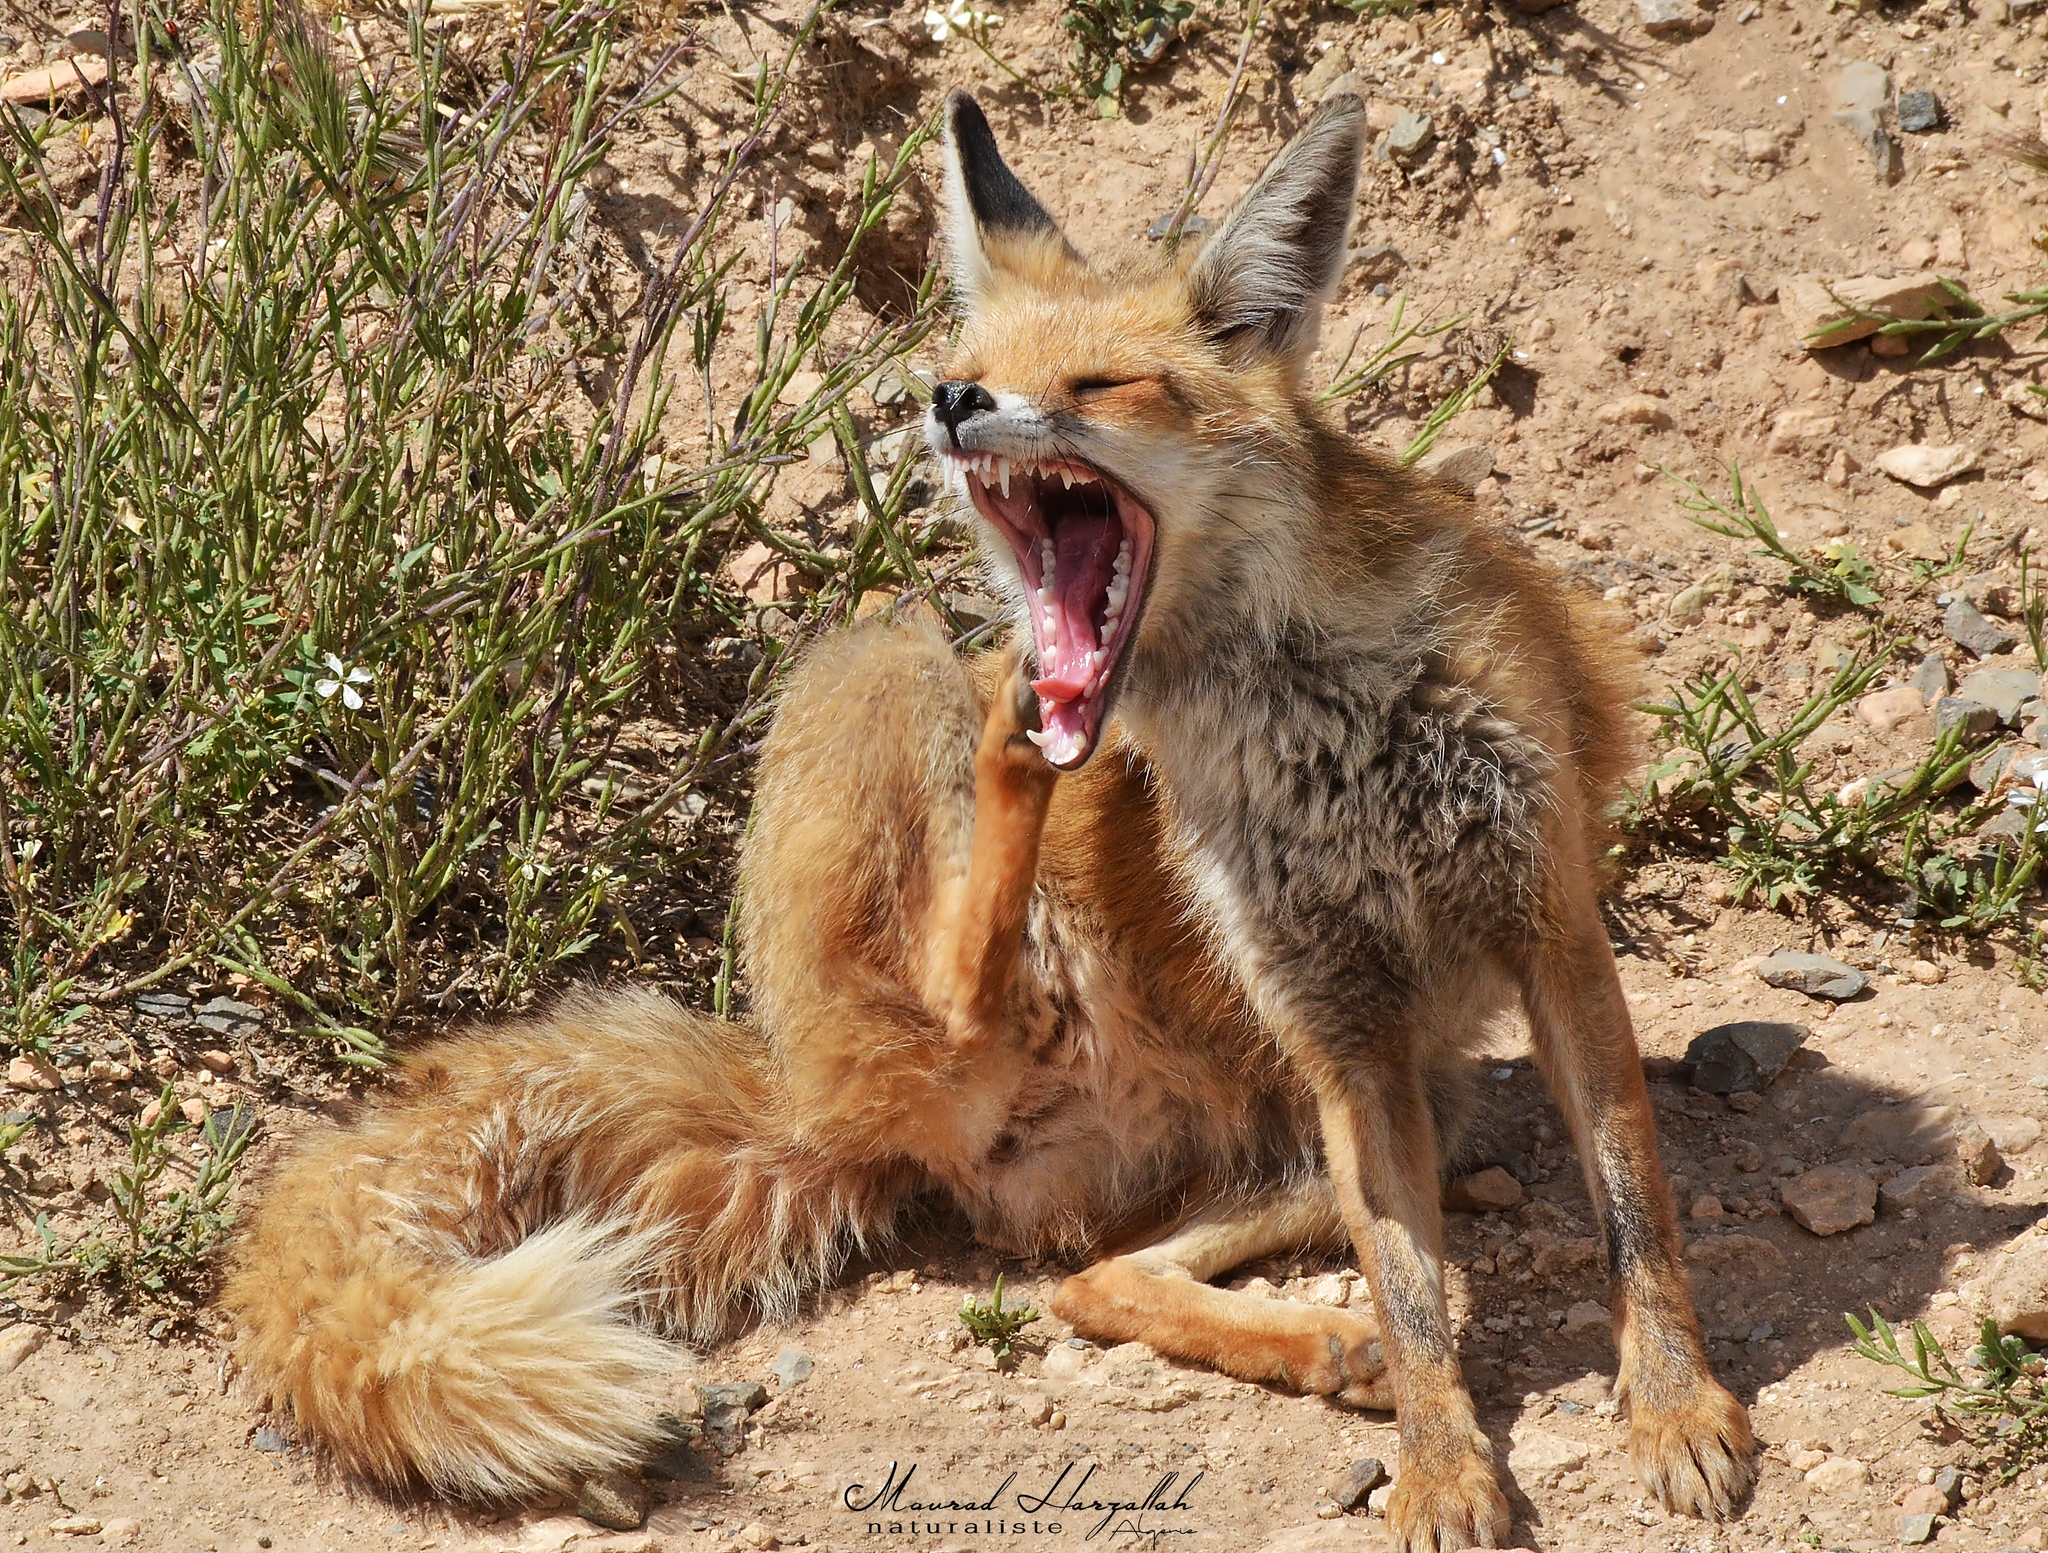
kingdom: Animalia
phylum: Chordata
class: Mammalia
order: Carnivora
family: Canidae
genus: Vulpes
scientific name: Vulpes vulpes
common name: Red fox
